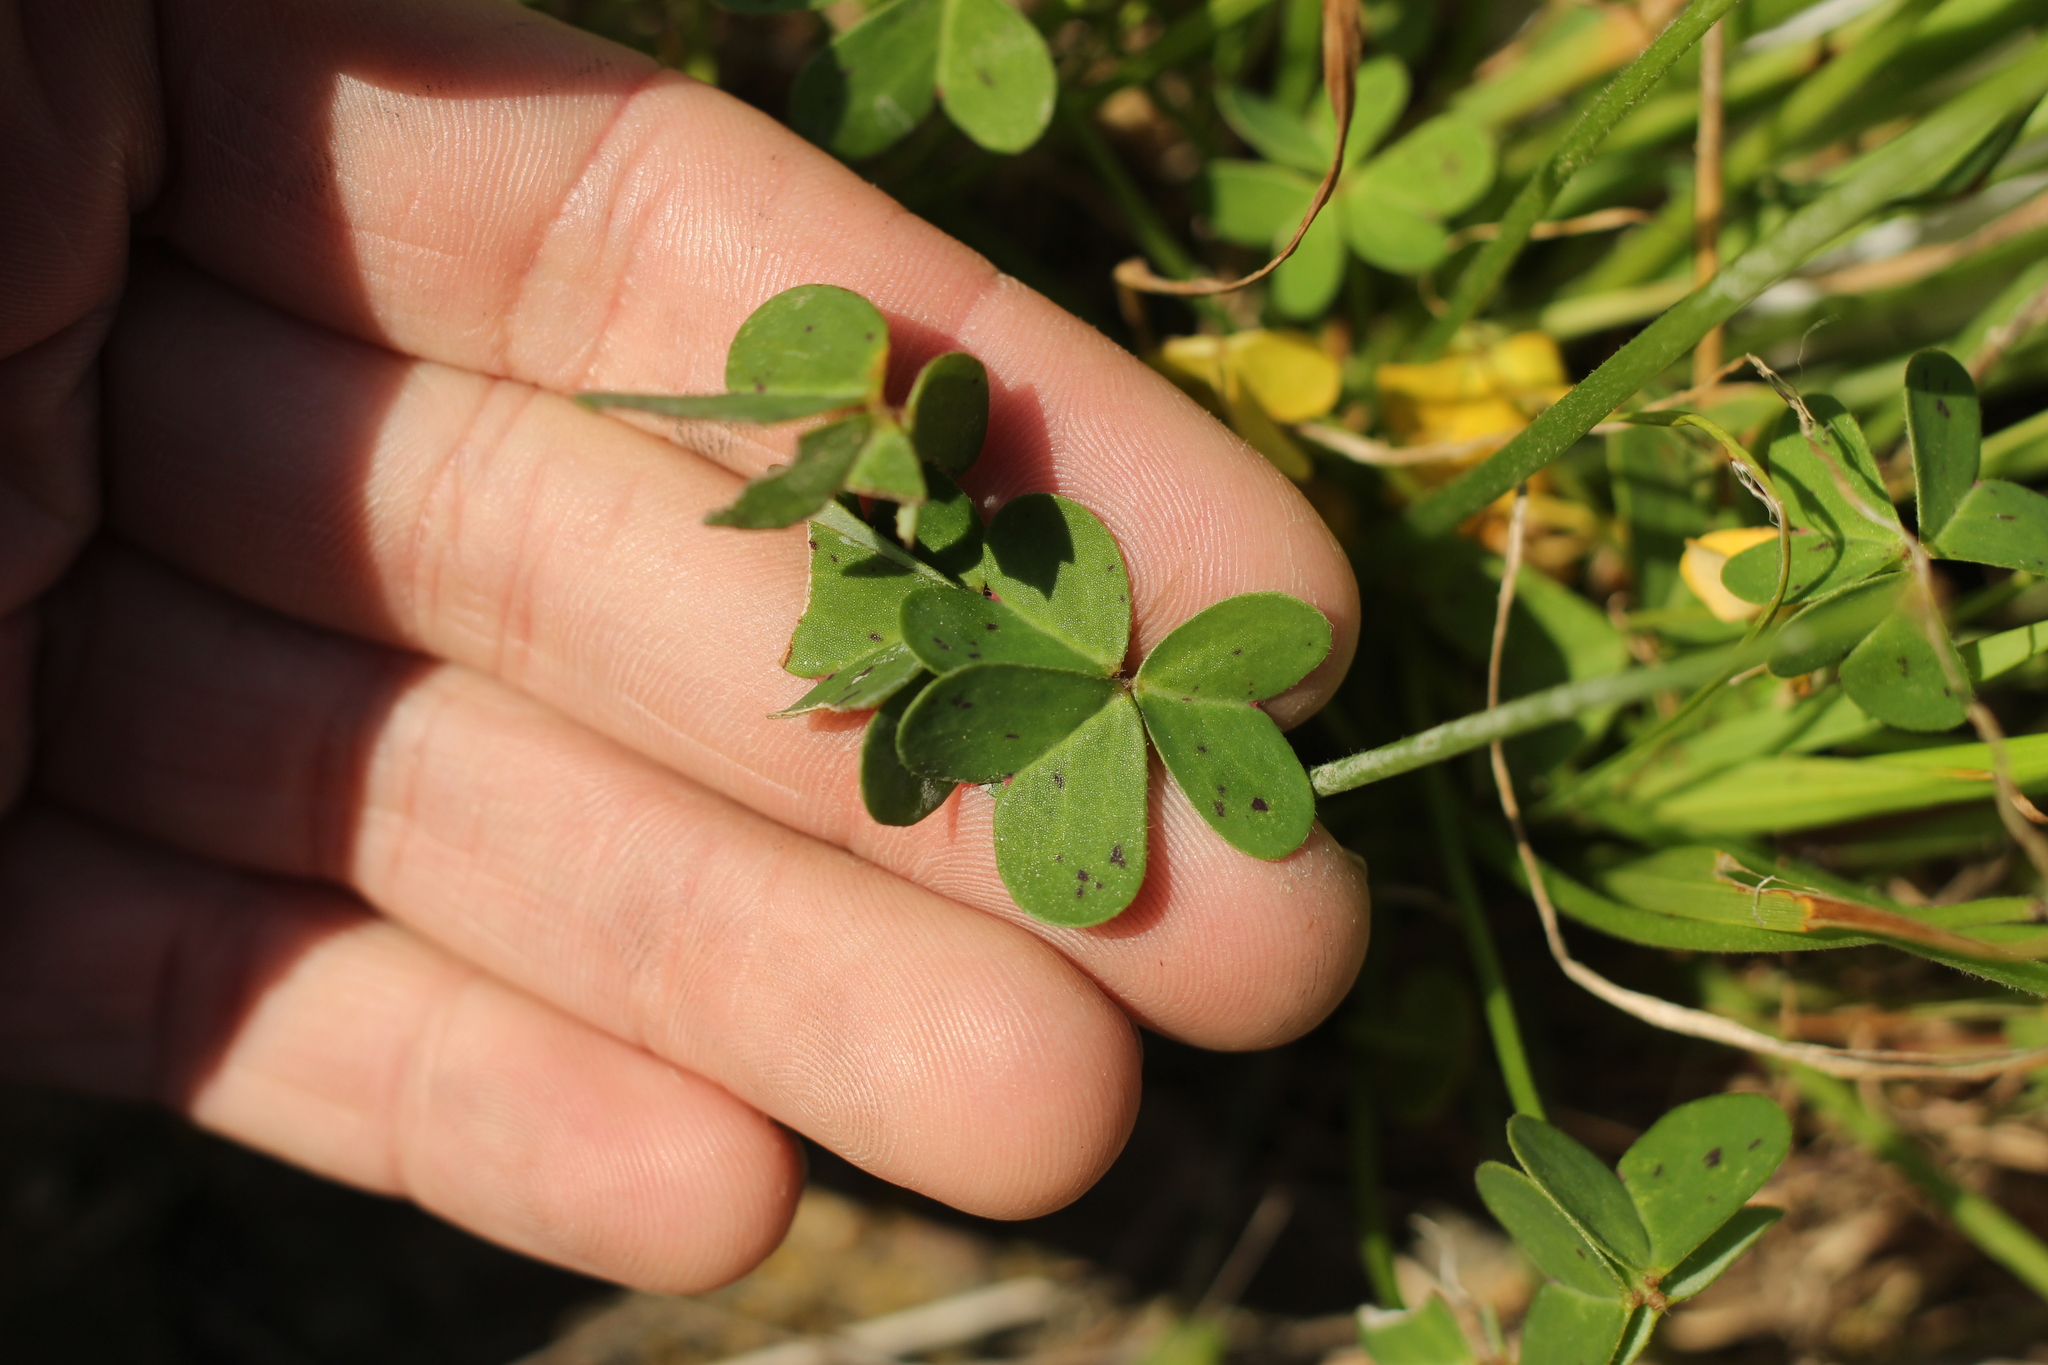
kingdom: Plantae
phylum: Tracheophyta
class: Magnoliopsida
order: Oxalidales
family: Oxalidaceae
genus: Oxalis
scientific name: Oxalis pes-caprae
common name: Bermuda-buttercup
